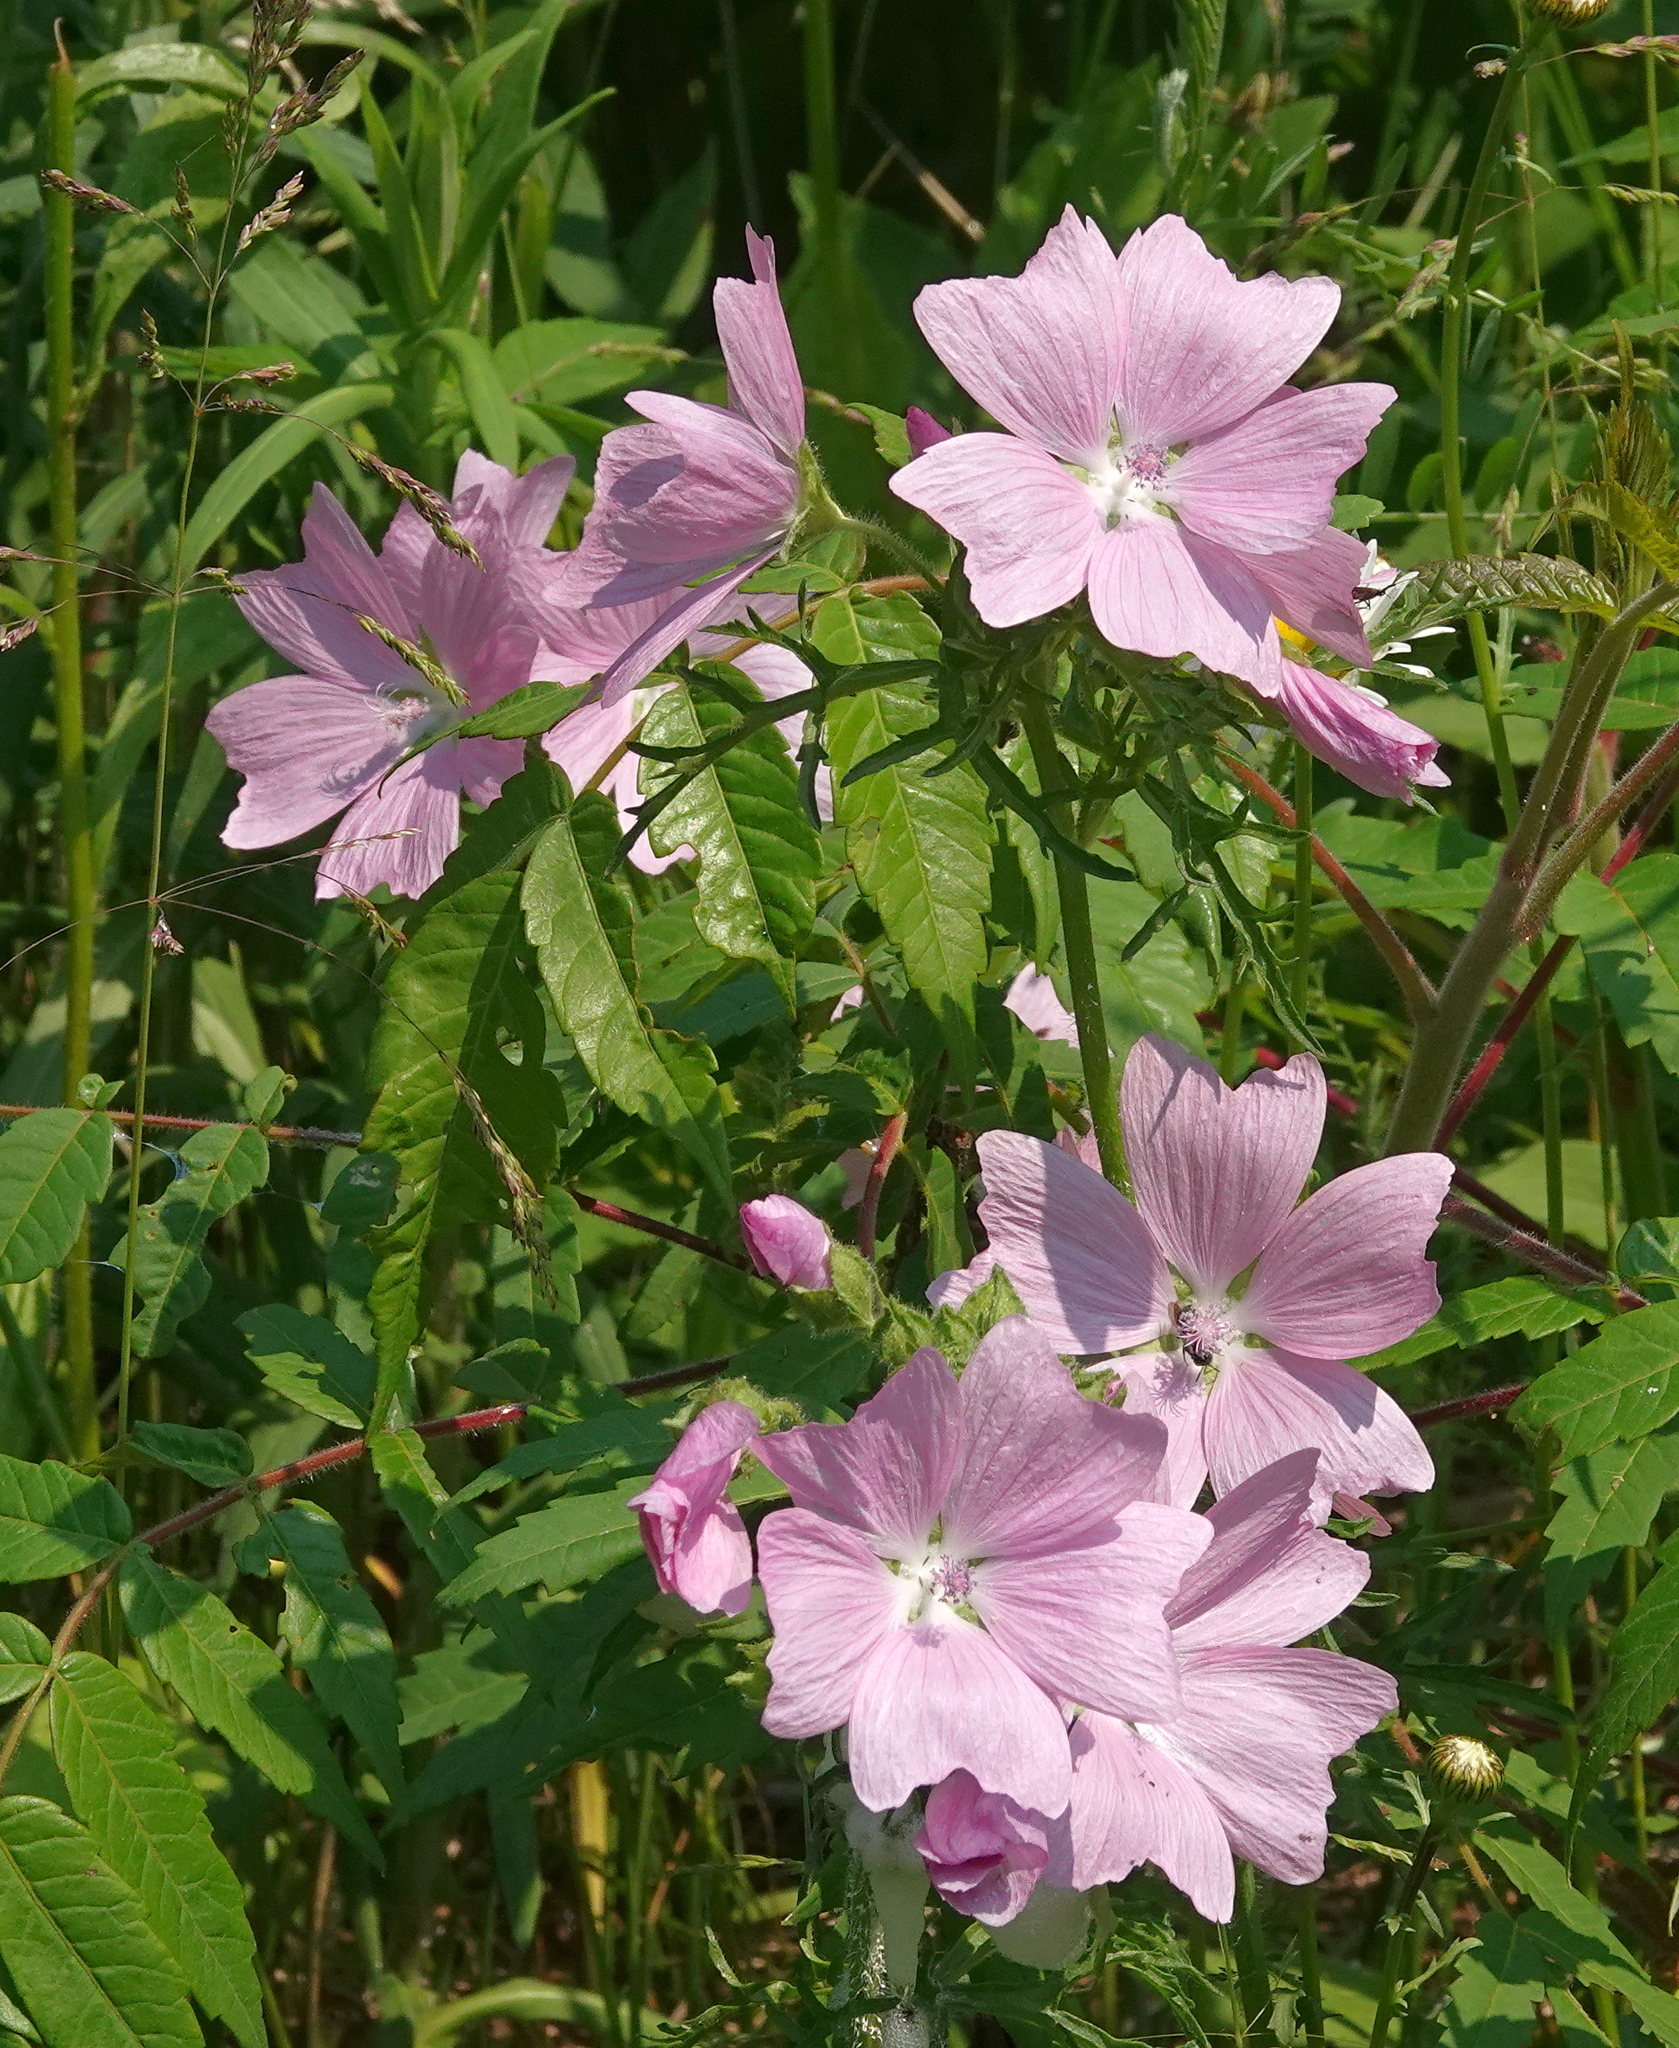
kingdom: Plantae
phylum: Tracheophyta
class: Magnoliopsida
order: Malvales
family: Malvaceae
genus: Malva
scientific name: Malva moschata
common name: Musk mallow
